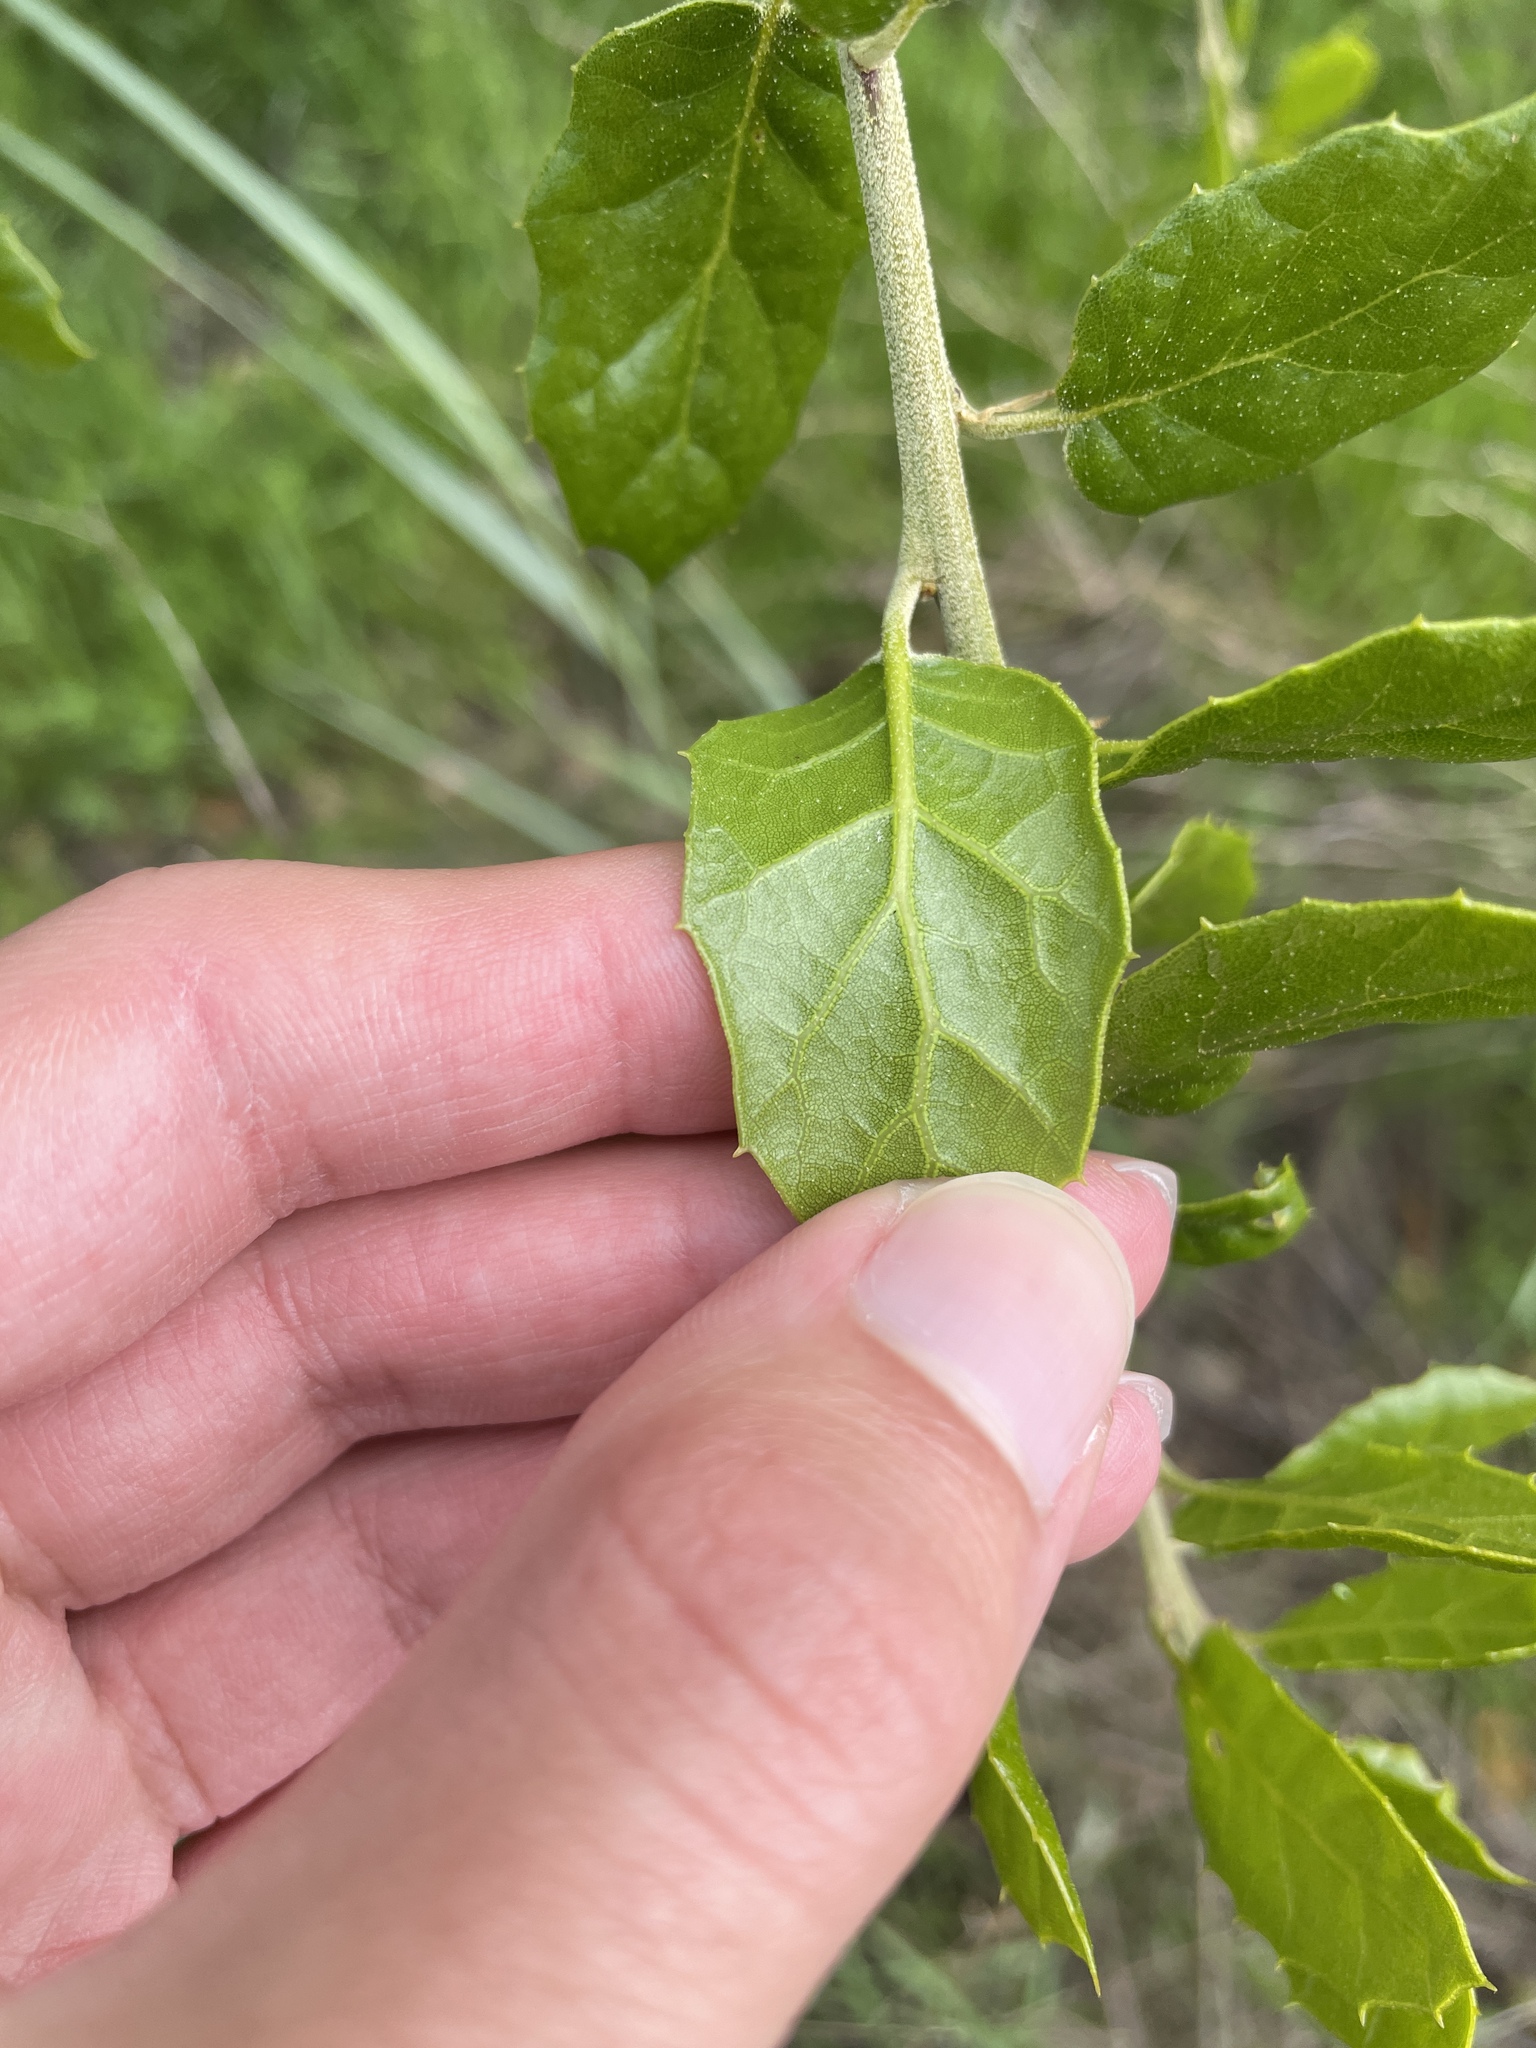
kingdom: Plantae
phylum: Tracheophyta
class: Magnoliopsida
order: Fagales
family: Fagaceae
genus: Quercus
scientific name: Quercus agrifolia
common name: California live oak
